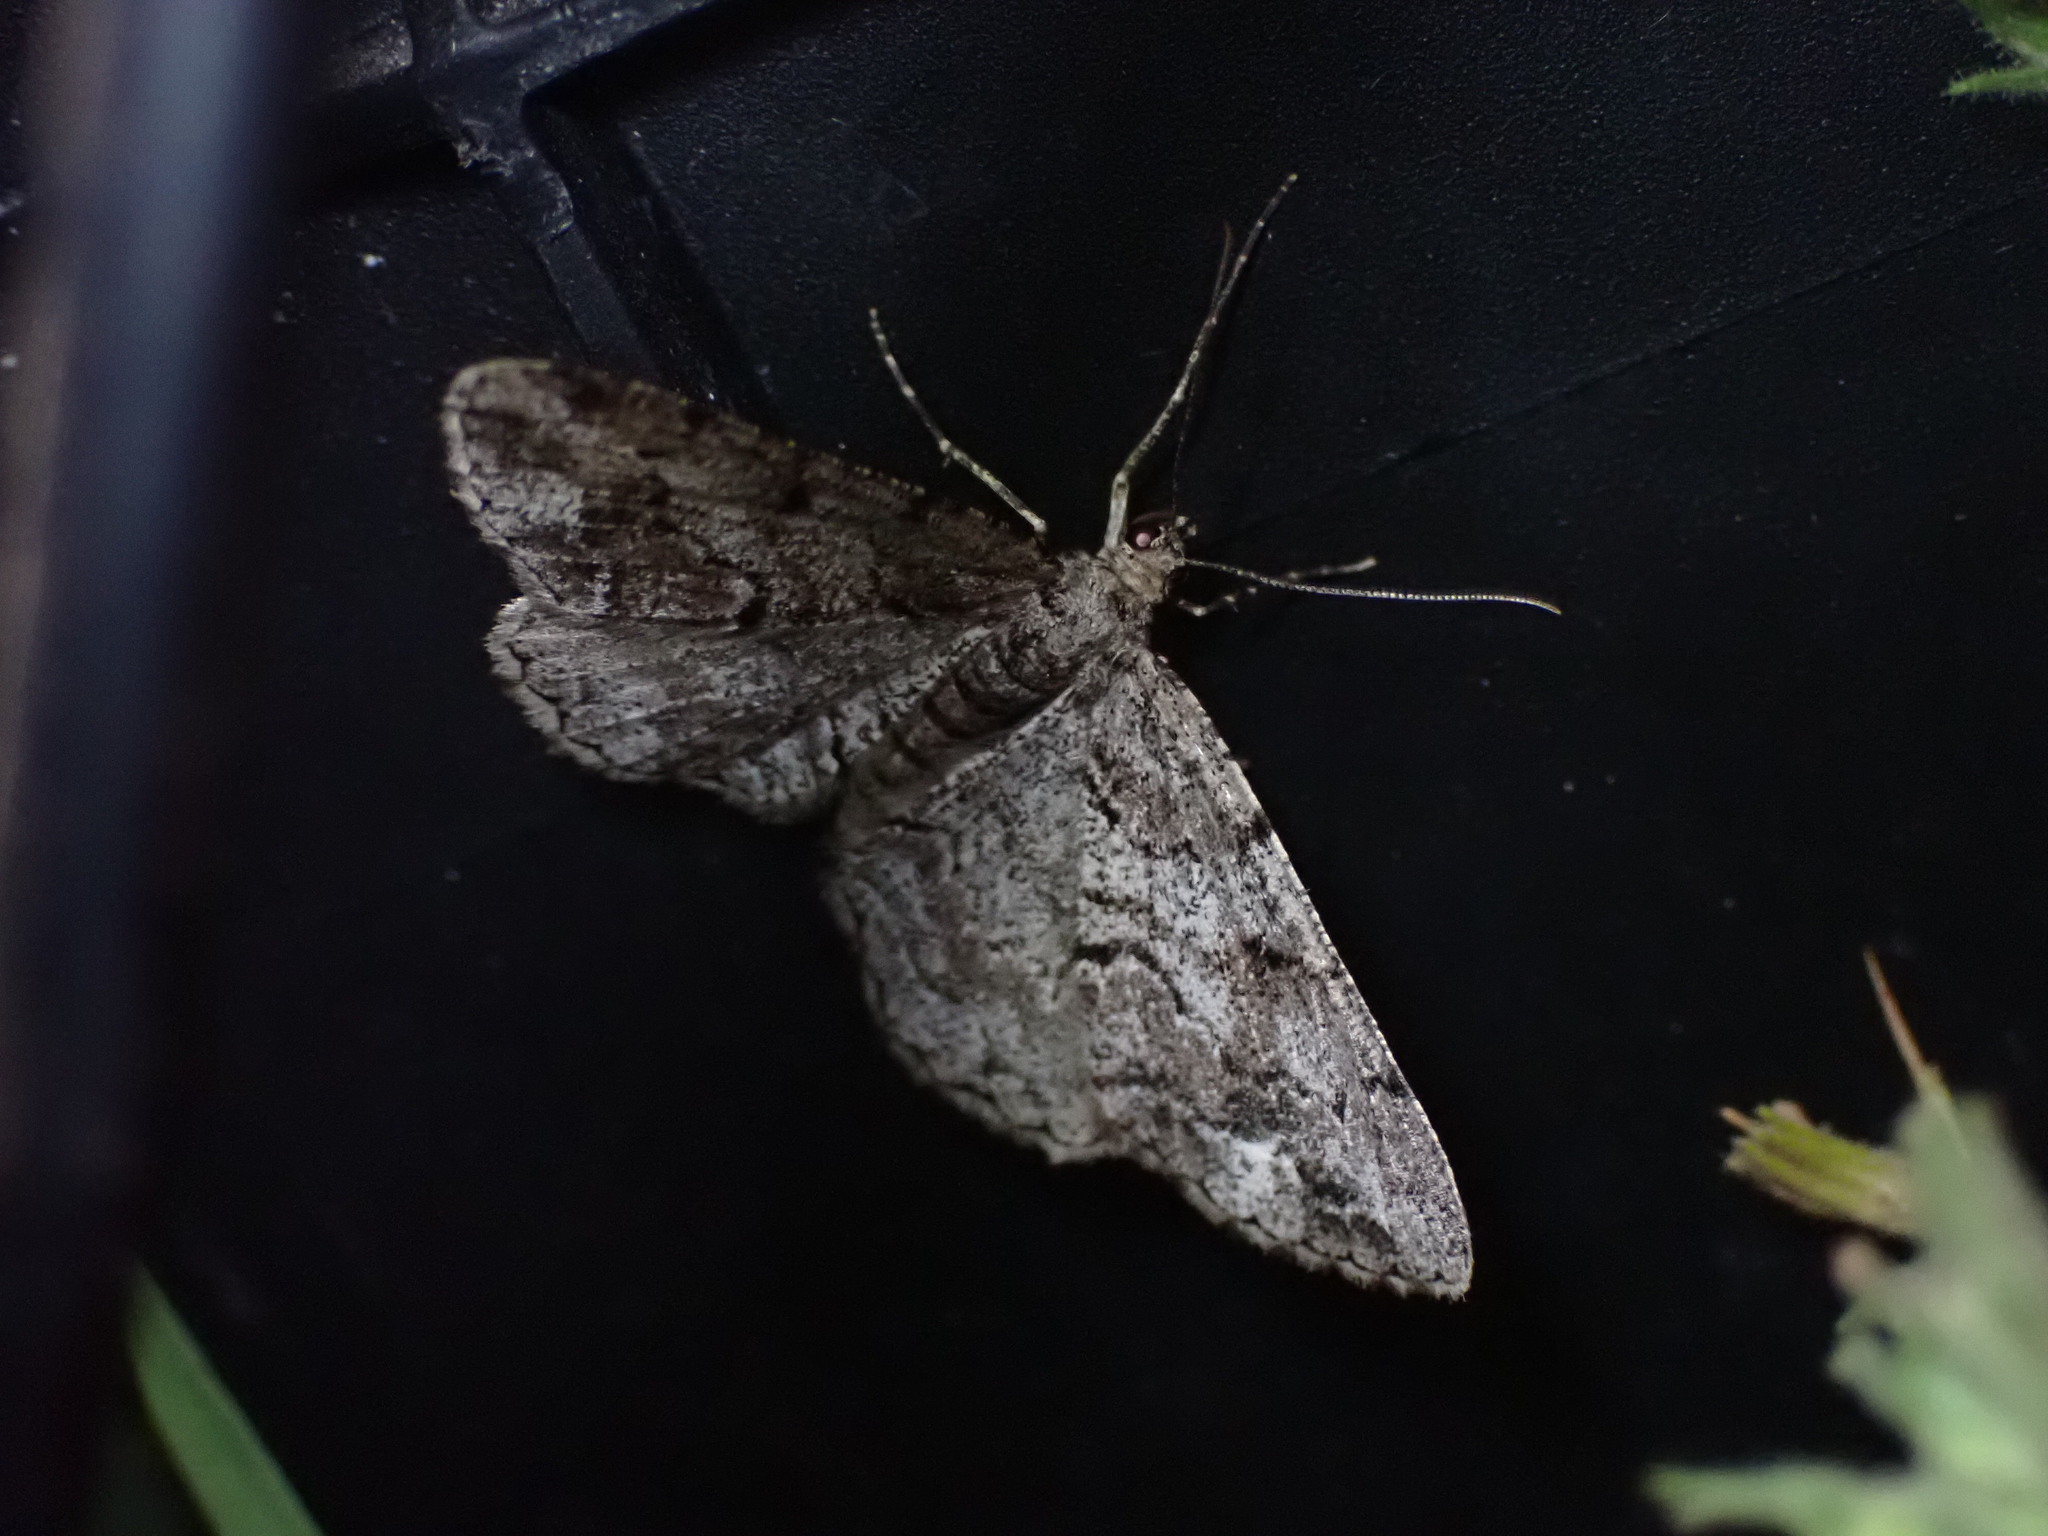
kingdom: Animalia
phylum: Arthropoda
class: Insecta
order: Lepidoptera
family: Geometridae
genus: Peribatodes
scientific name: Peribatodes secundaria
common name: Feathered beauty
